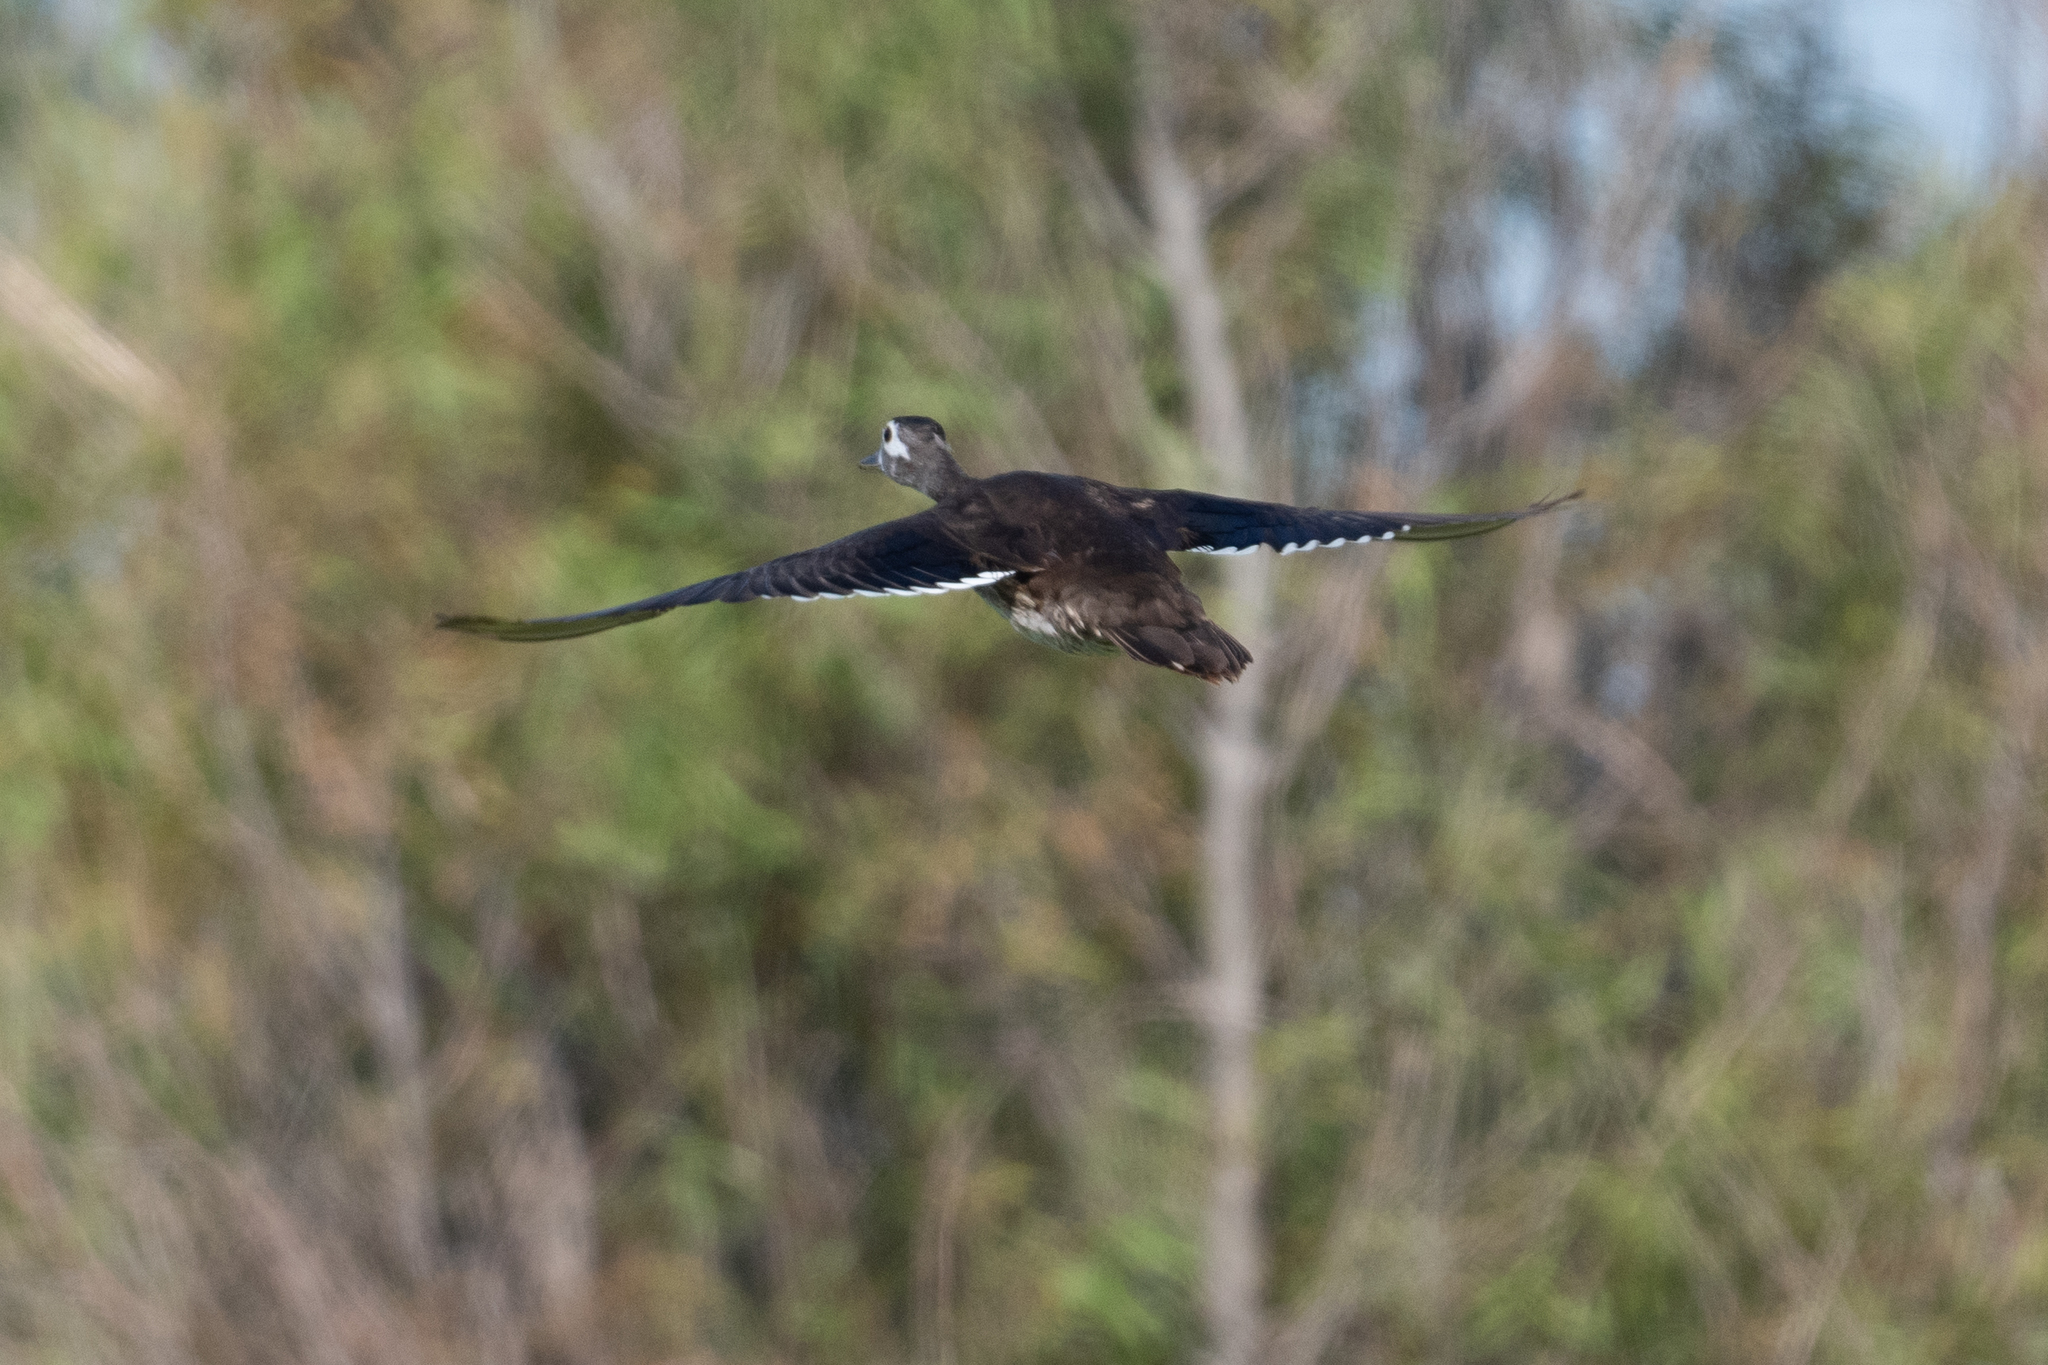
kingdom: Animalia
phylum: Chordata
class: Aves
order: Anseriformes
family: Anatidae
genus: Aix
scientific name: Aix sponsa
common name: Wood duck
